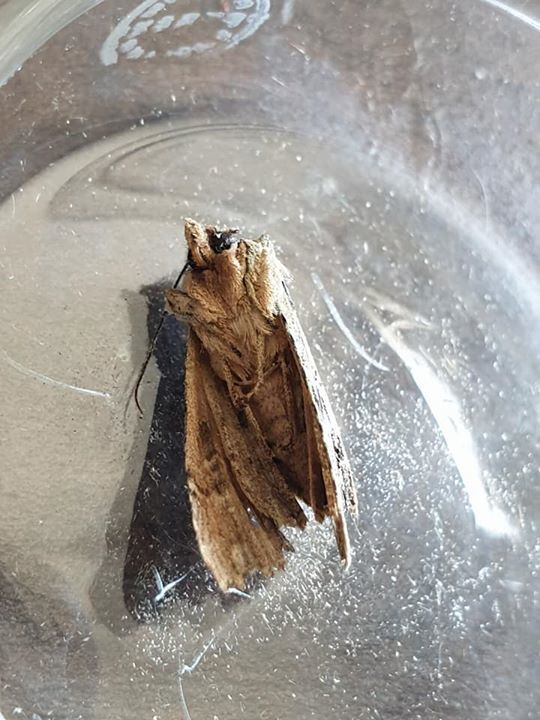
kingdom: Animalia
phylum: Arthropoda
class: Insecta
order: Lepidoptera
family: Noctuidae
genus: Meterana
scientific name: Meterana decorata
